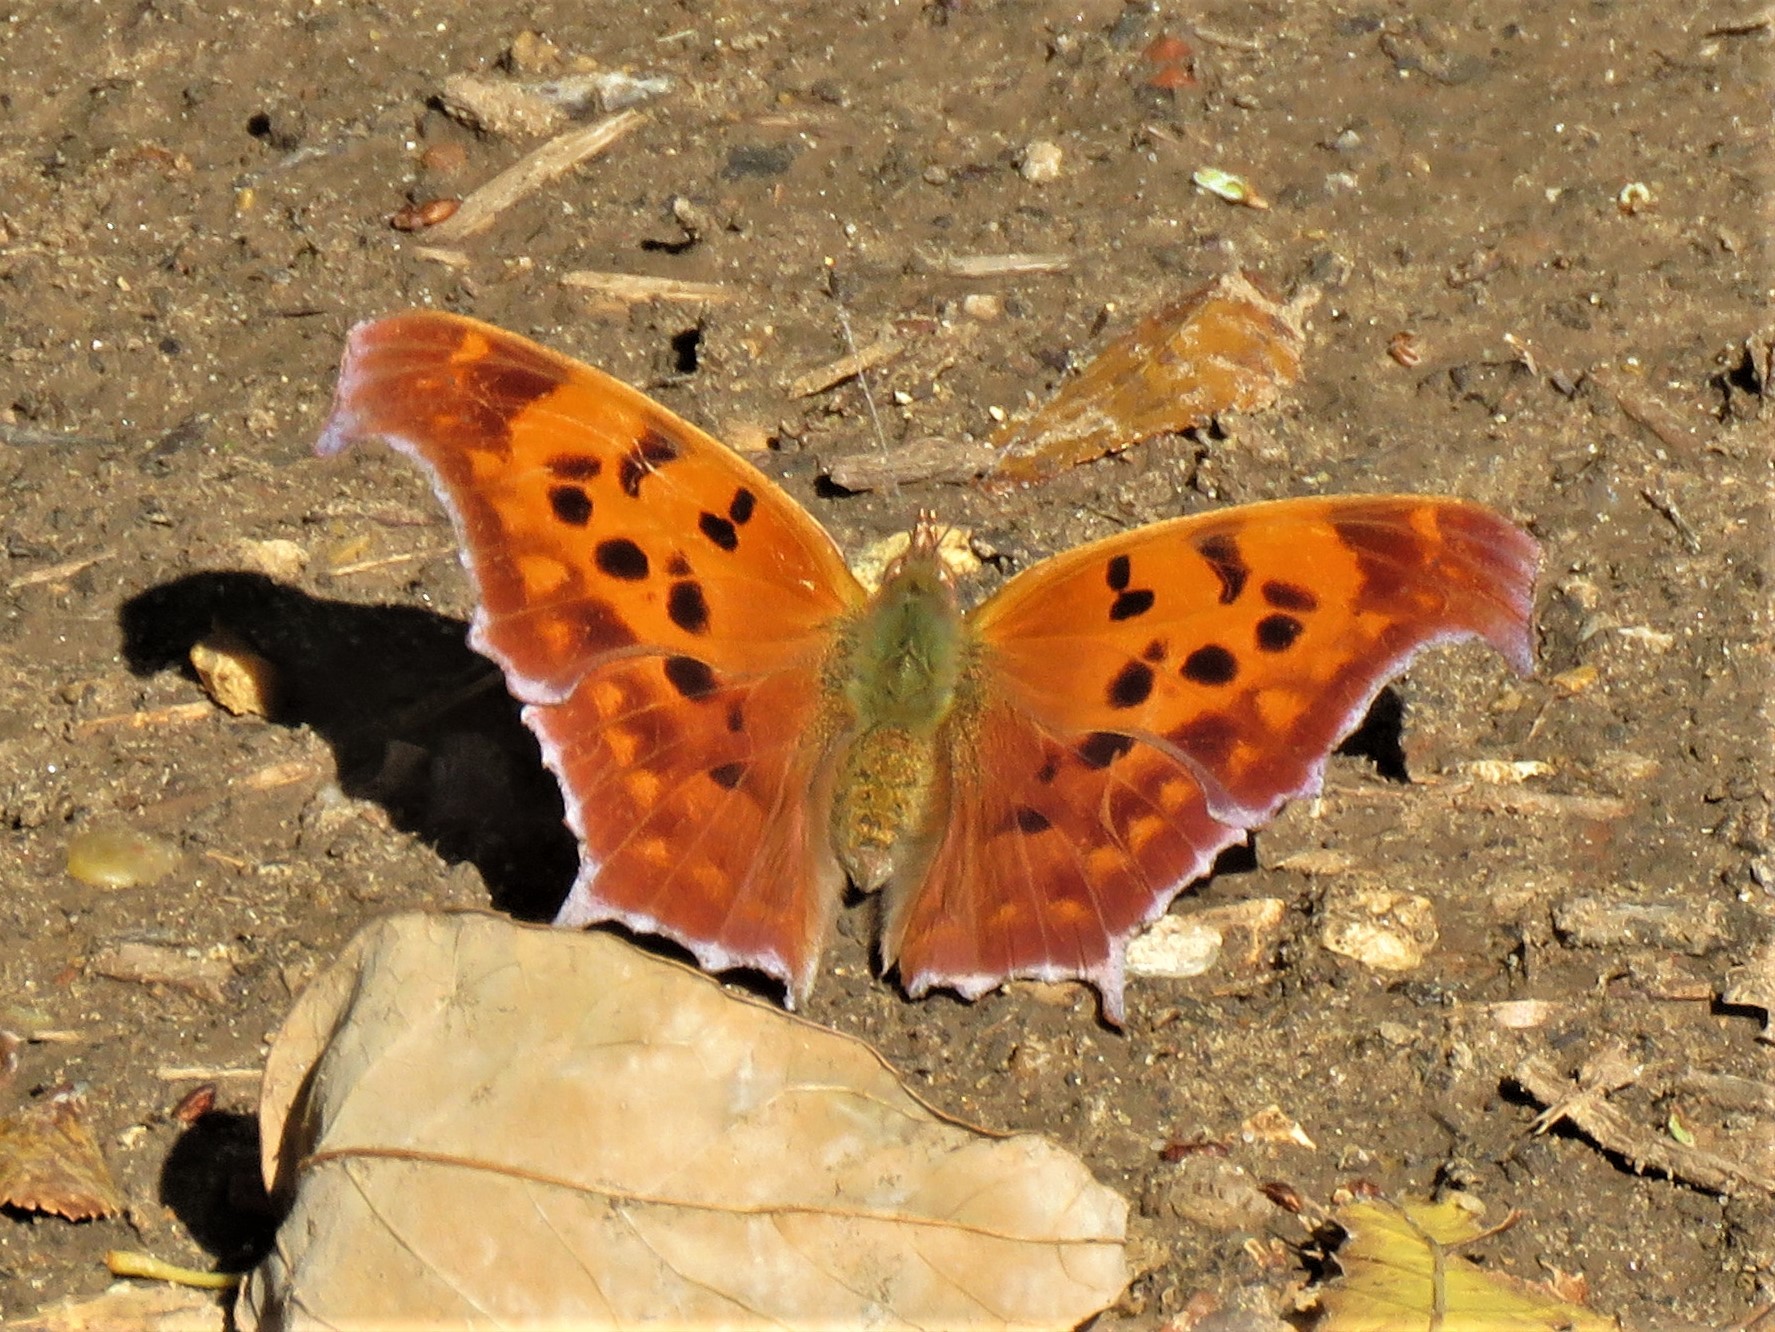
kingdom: Animalia
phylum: Arthropoda
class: Insecta
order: Lepidoptera
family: Nymphalidae
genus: Polygonia
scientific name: Polygonia interrogationis
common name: Question mark
